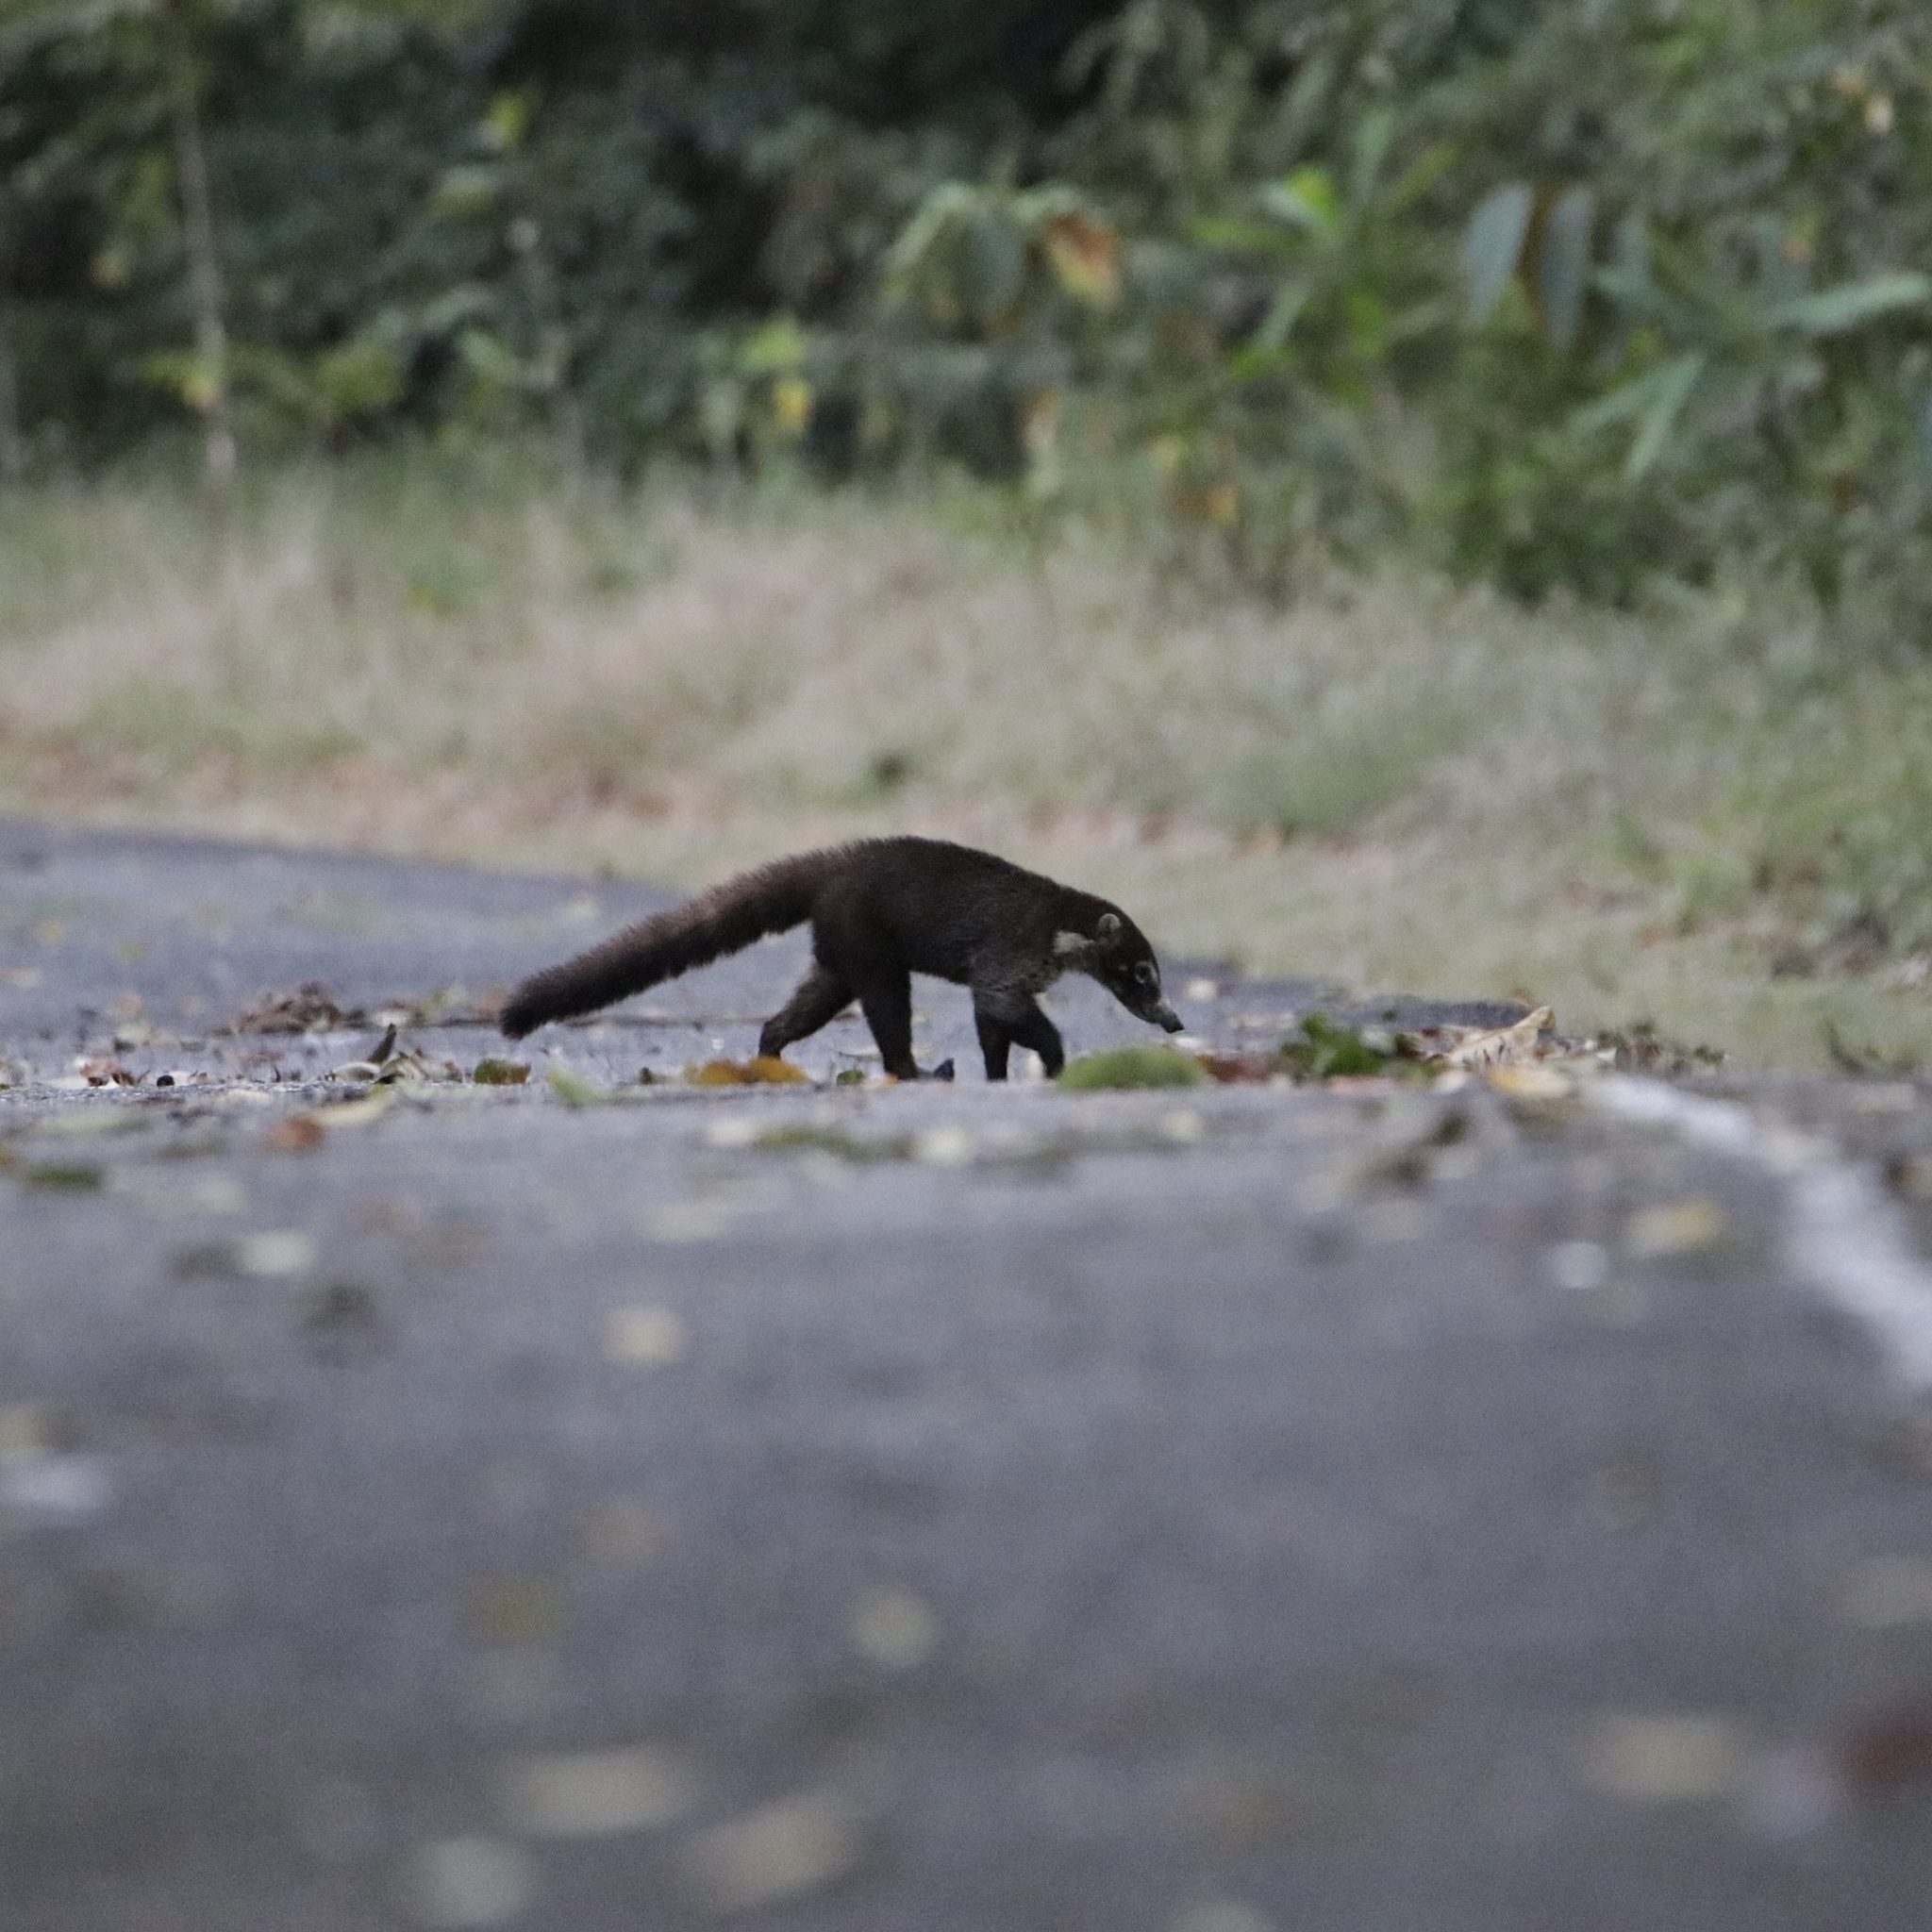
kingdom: Animalia
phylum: Chordata
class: Mammalia
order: Carnivora
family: Procyonidae
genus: Nasua
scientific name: Nasua narica
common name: White-nosed coati
